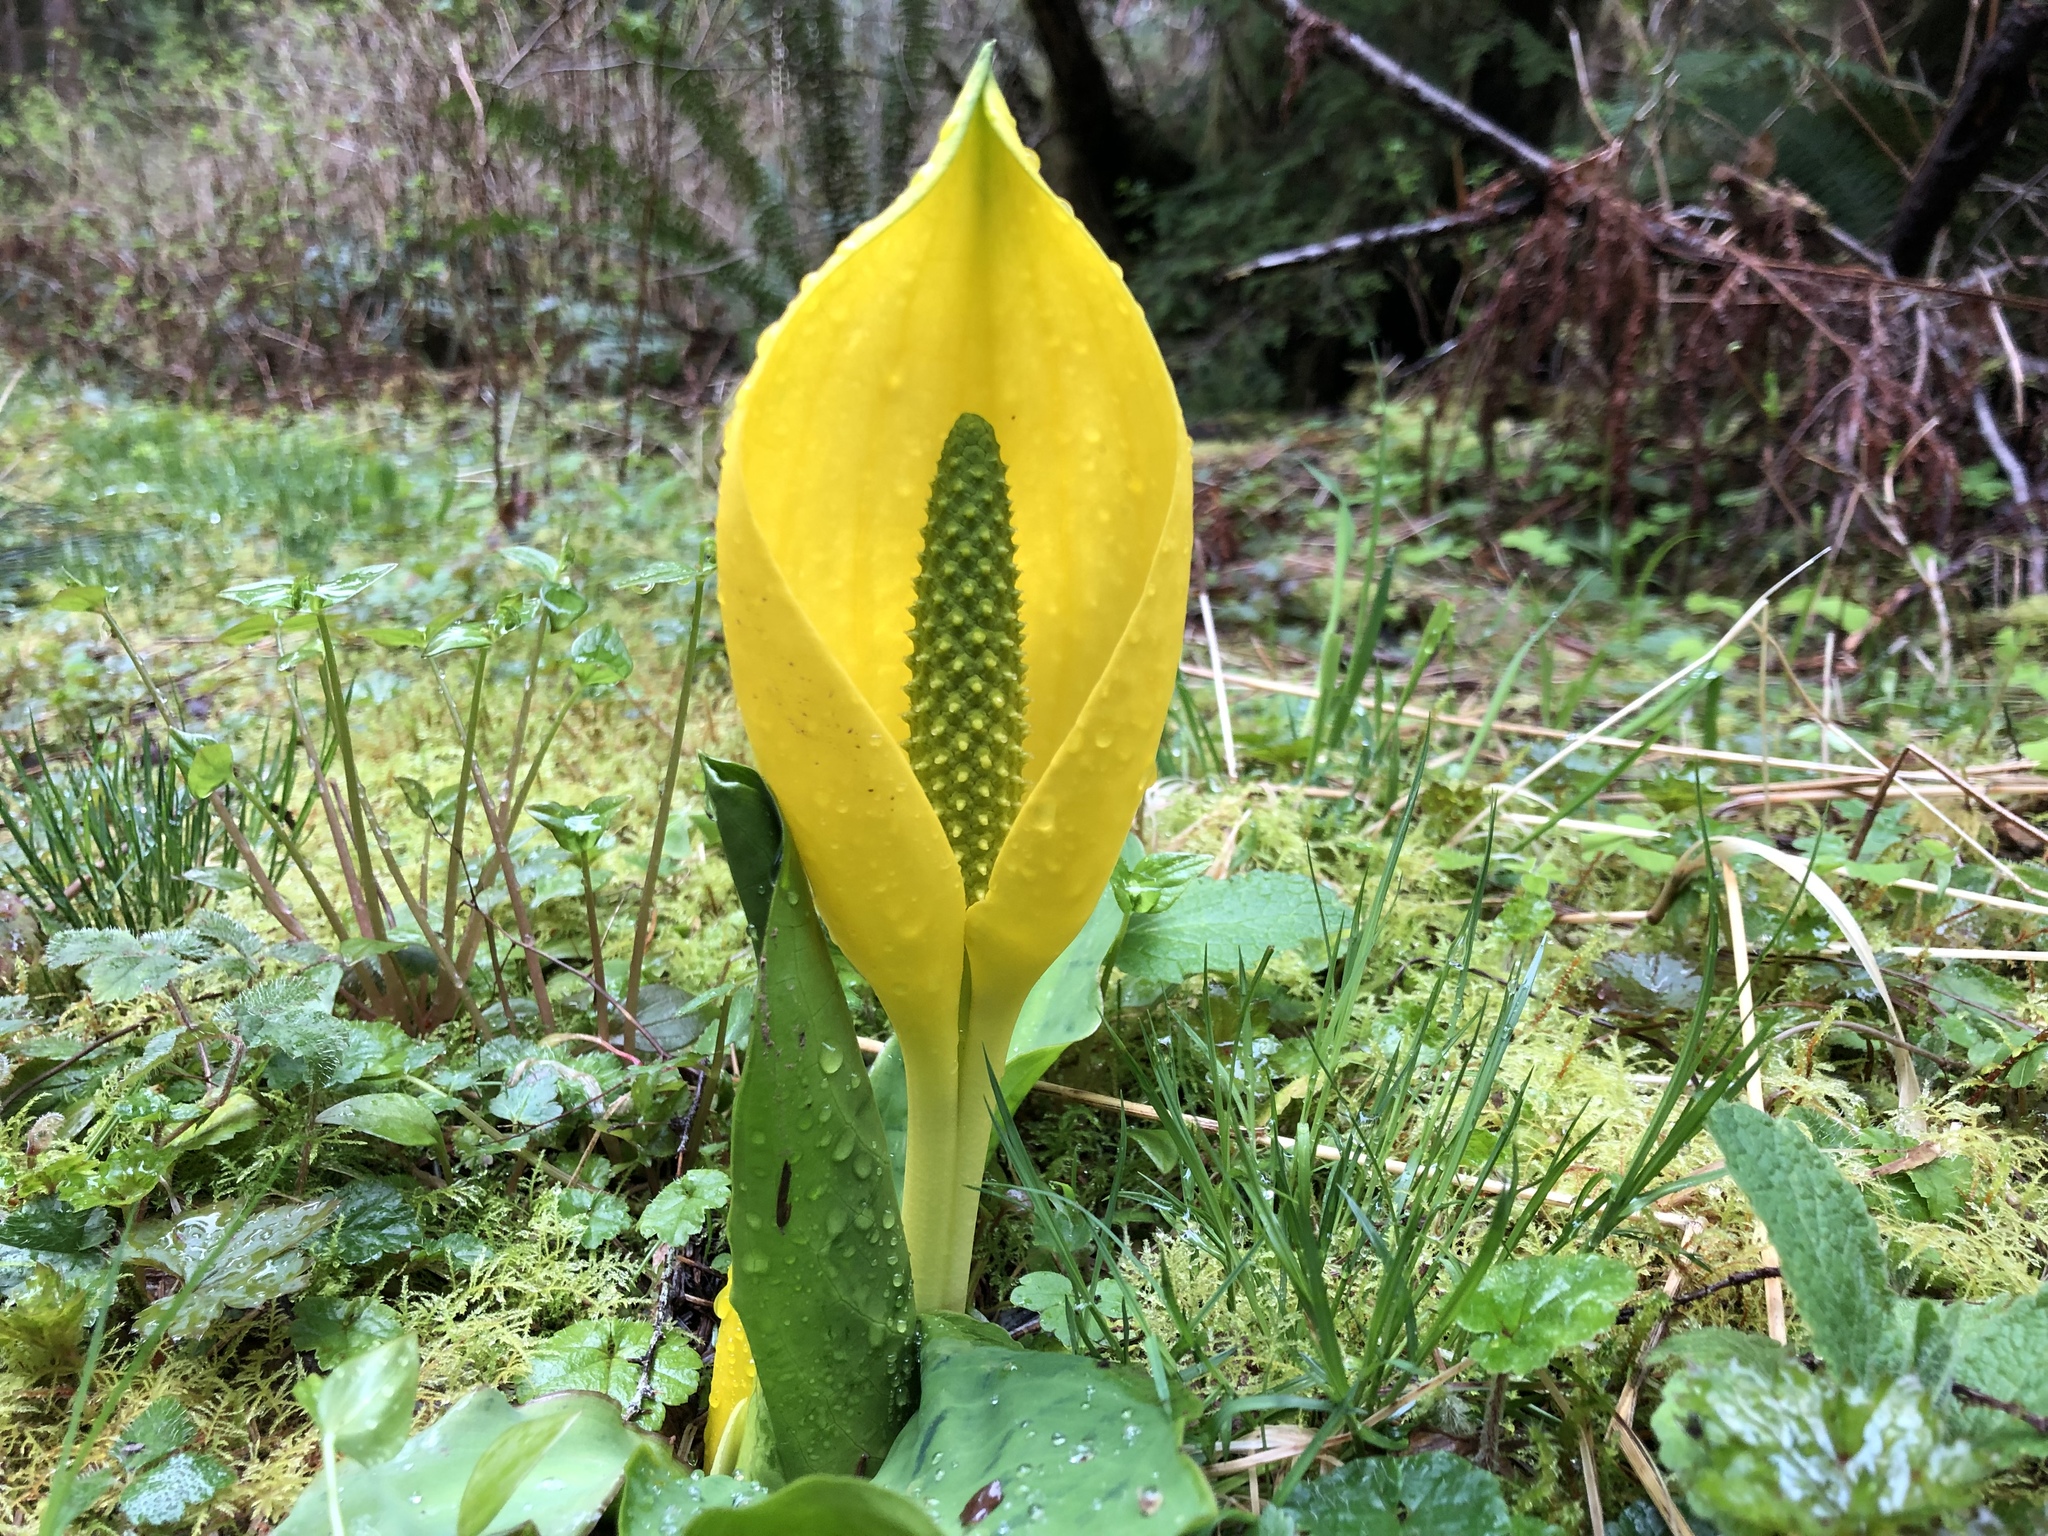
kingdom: Plantae
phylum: Tracheophyta
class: Liliopsida
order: Alismatales
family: Araceae
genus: Lysichiton
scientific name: Lysichiton americanus
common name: American skunk cabbage
